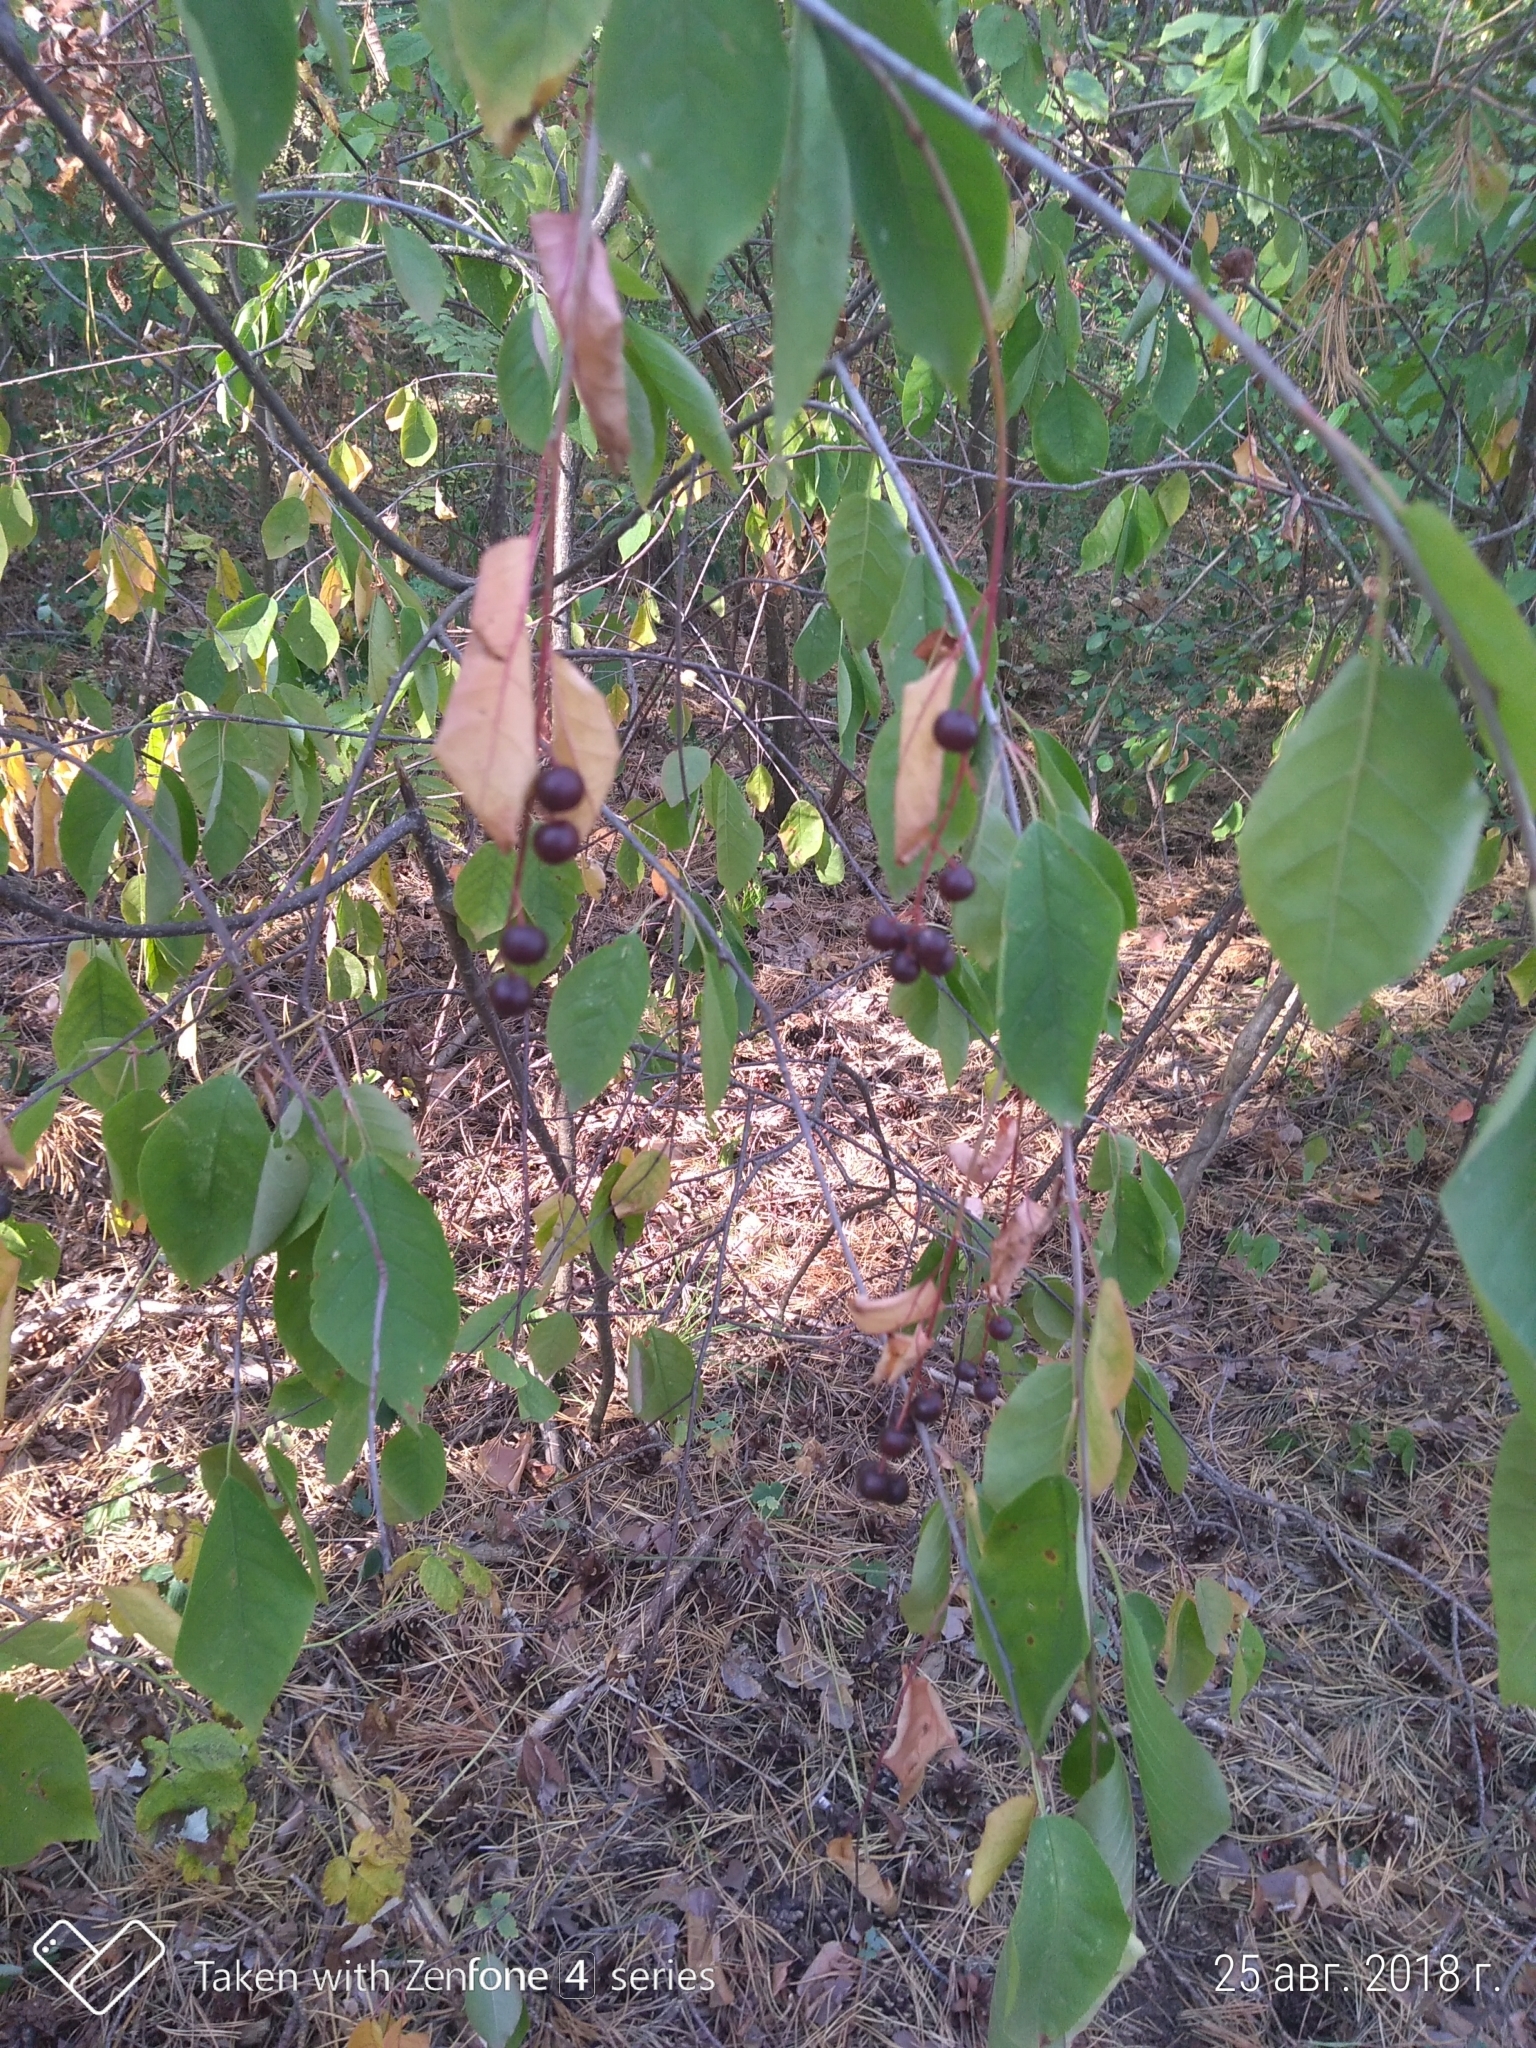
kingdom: Plantae
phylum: Tracheophyta
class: Magnoliopsida
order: Rosales
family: Rosaceae
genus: Prunus
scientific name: Prunus padus
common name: Bird cherry
